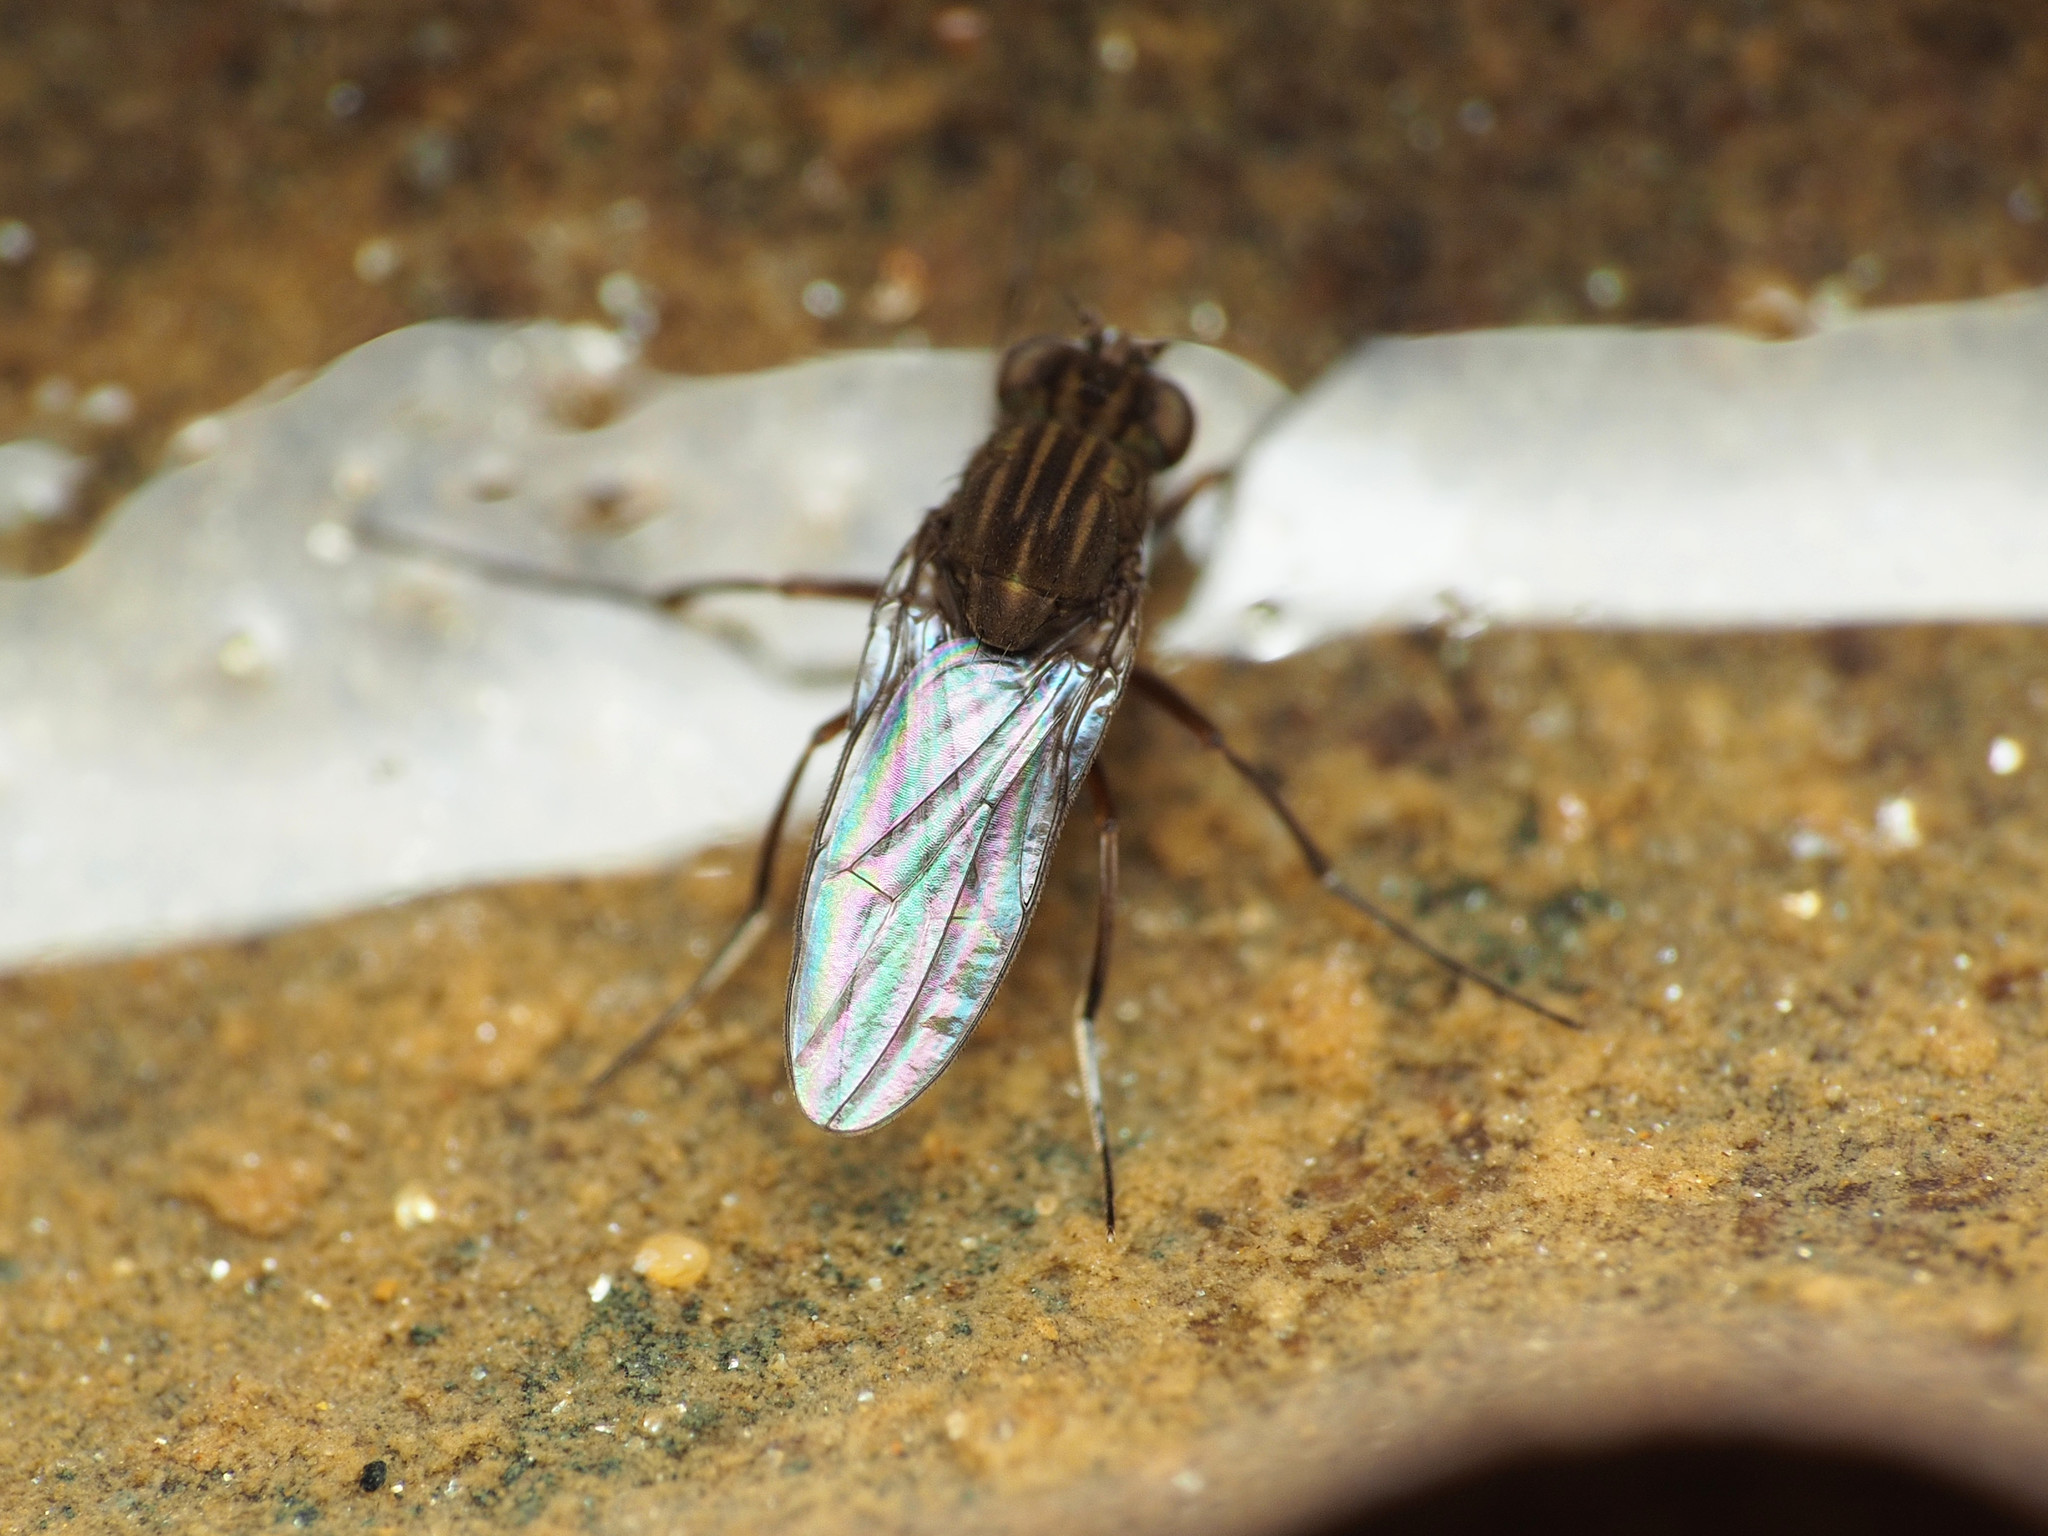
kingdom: Animalia
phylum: Arthropoda
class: Insecta
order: Diptera
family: Ephydridae
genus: Brachydeutera
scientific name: Brachydeutera argentata
